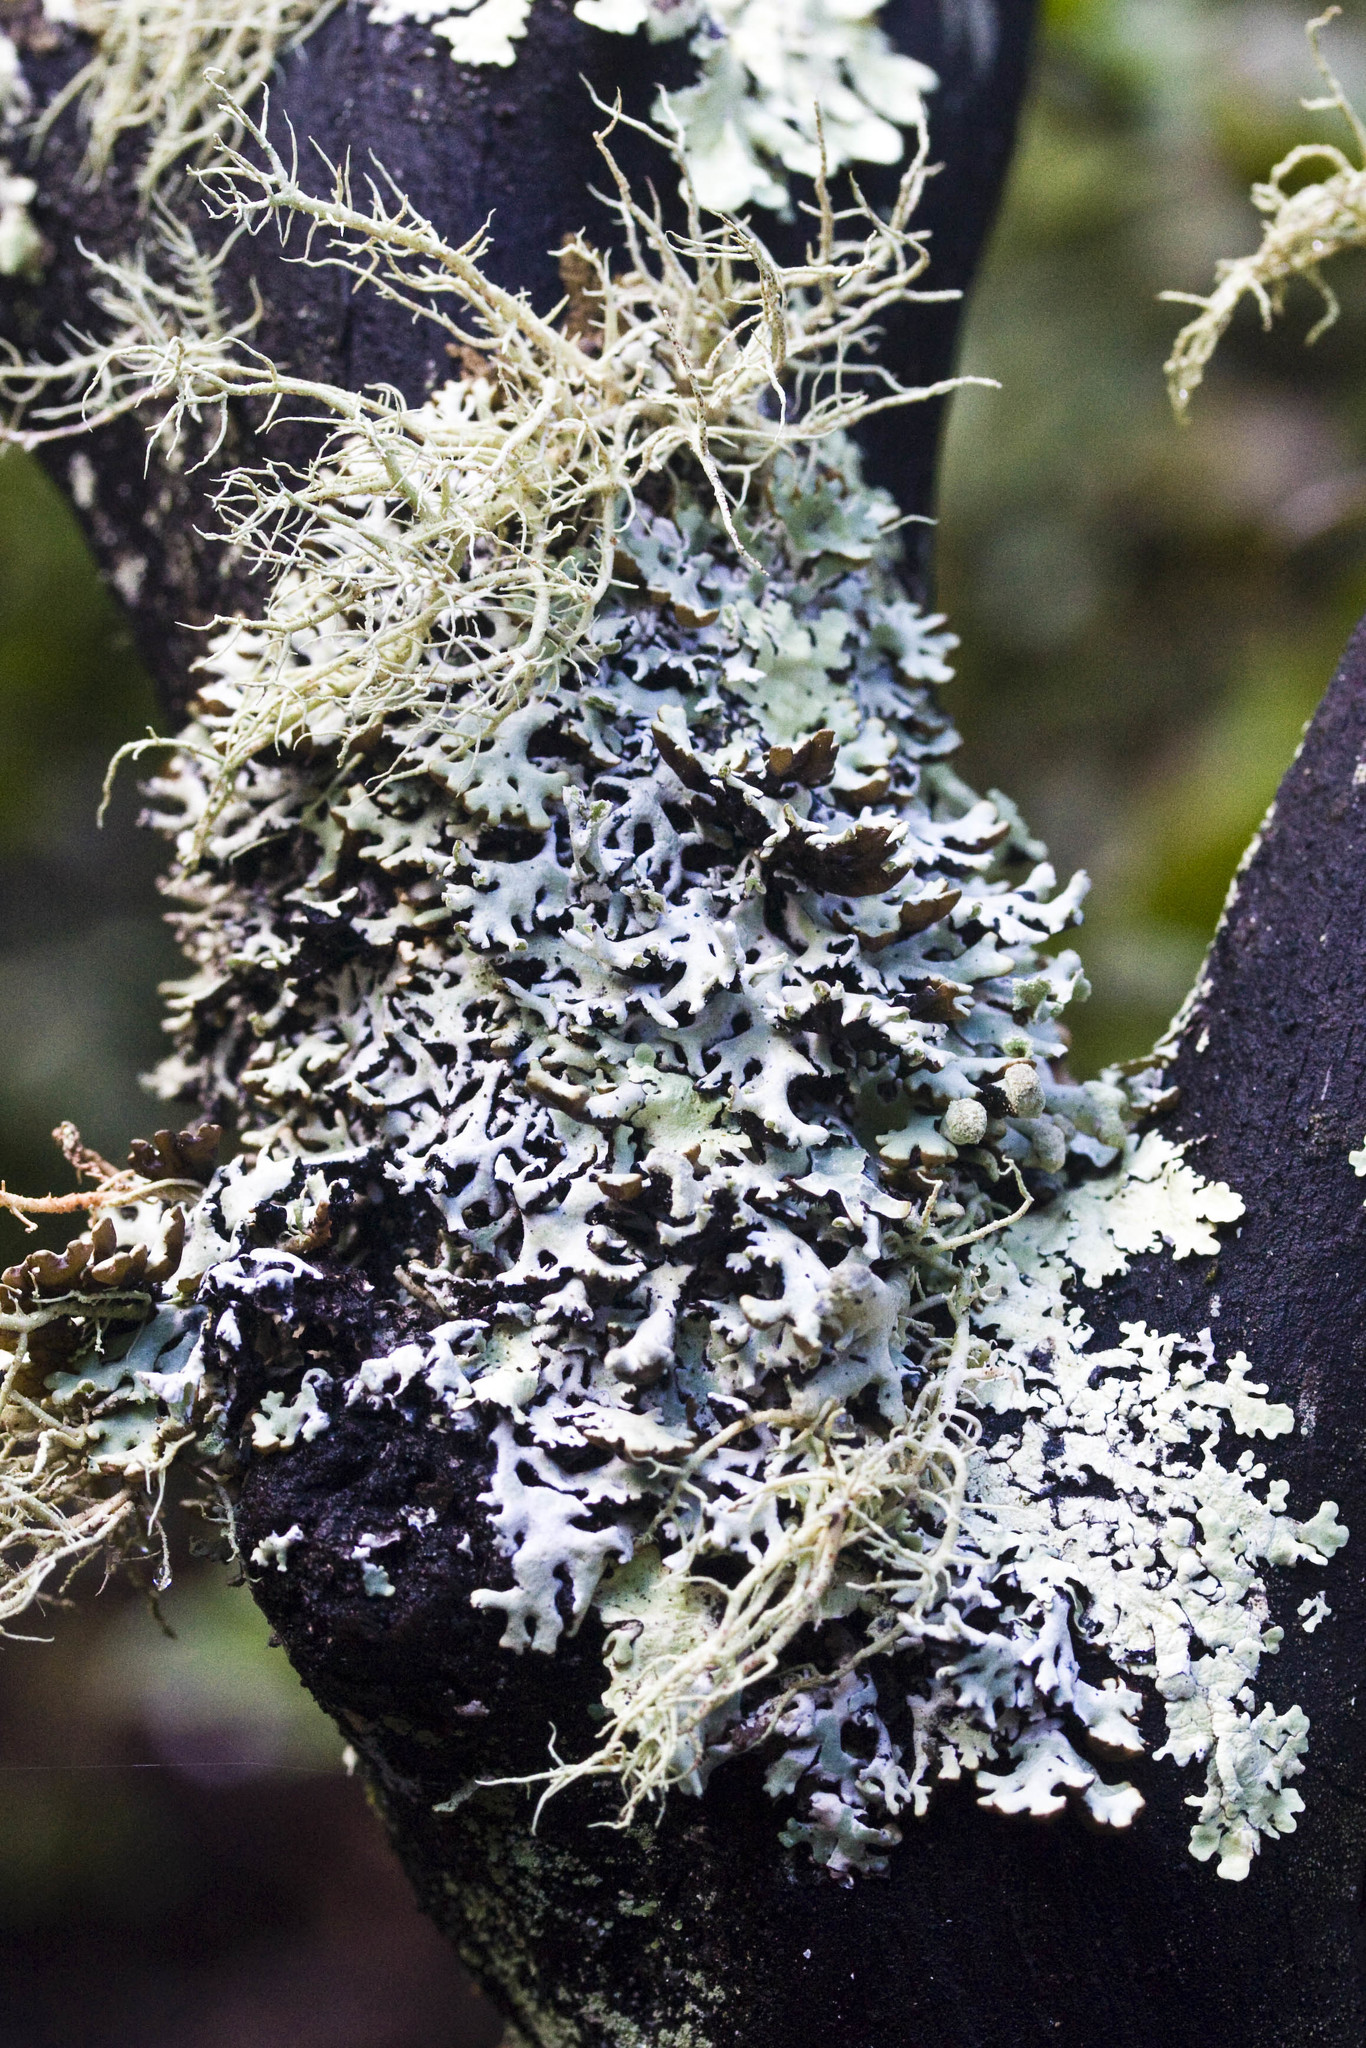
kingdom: Fungi
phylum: Ascomycota
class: Lecanoromycetes
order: Lecanorales
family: Parmeliaceae
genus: Hypogymnia
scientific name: Hypogymnia physodes
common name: Dark crottle
